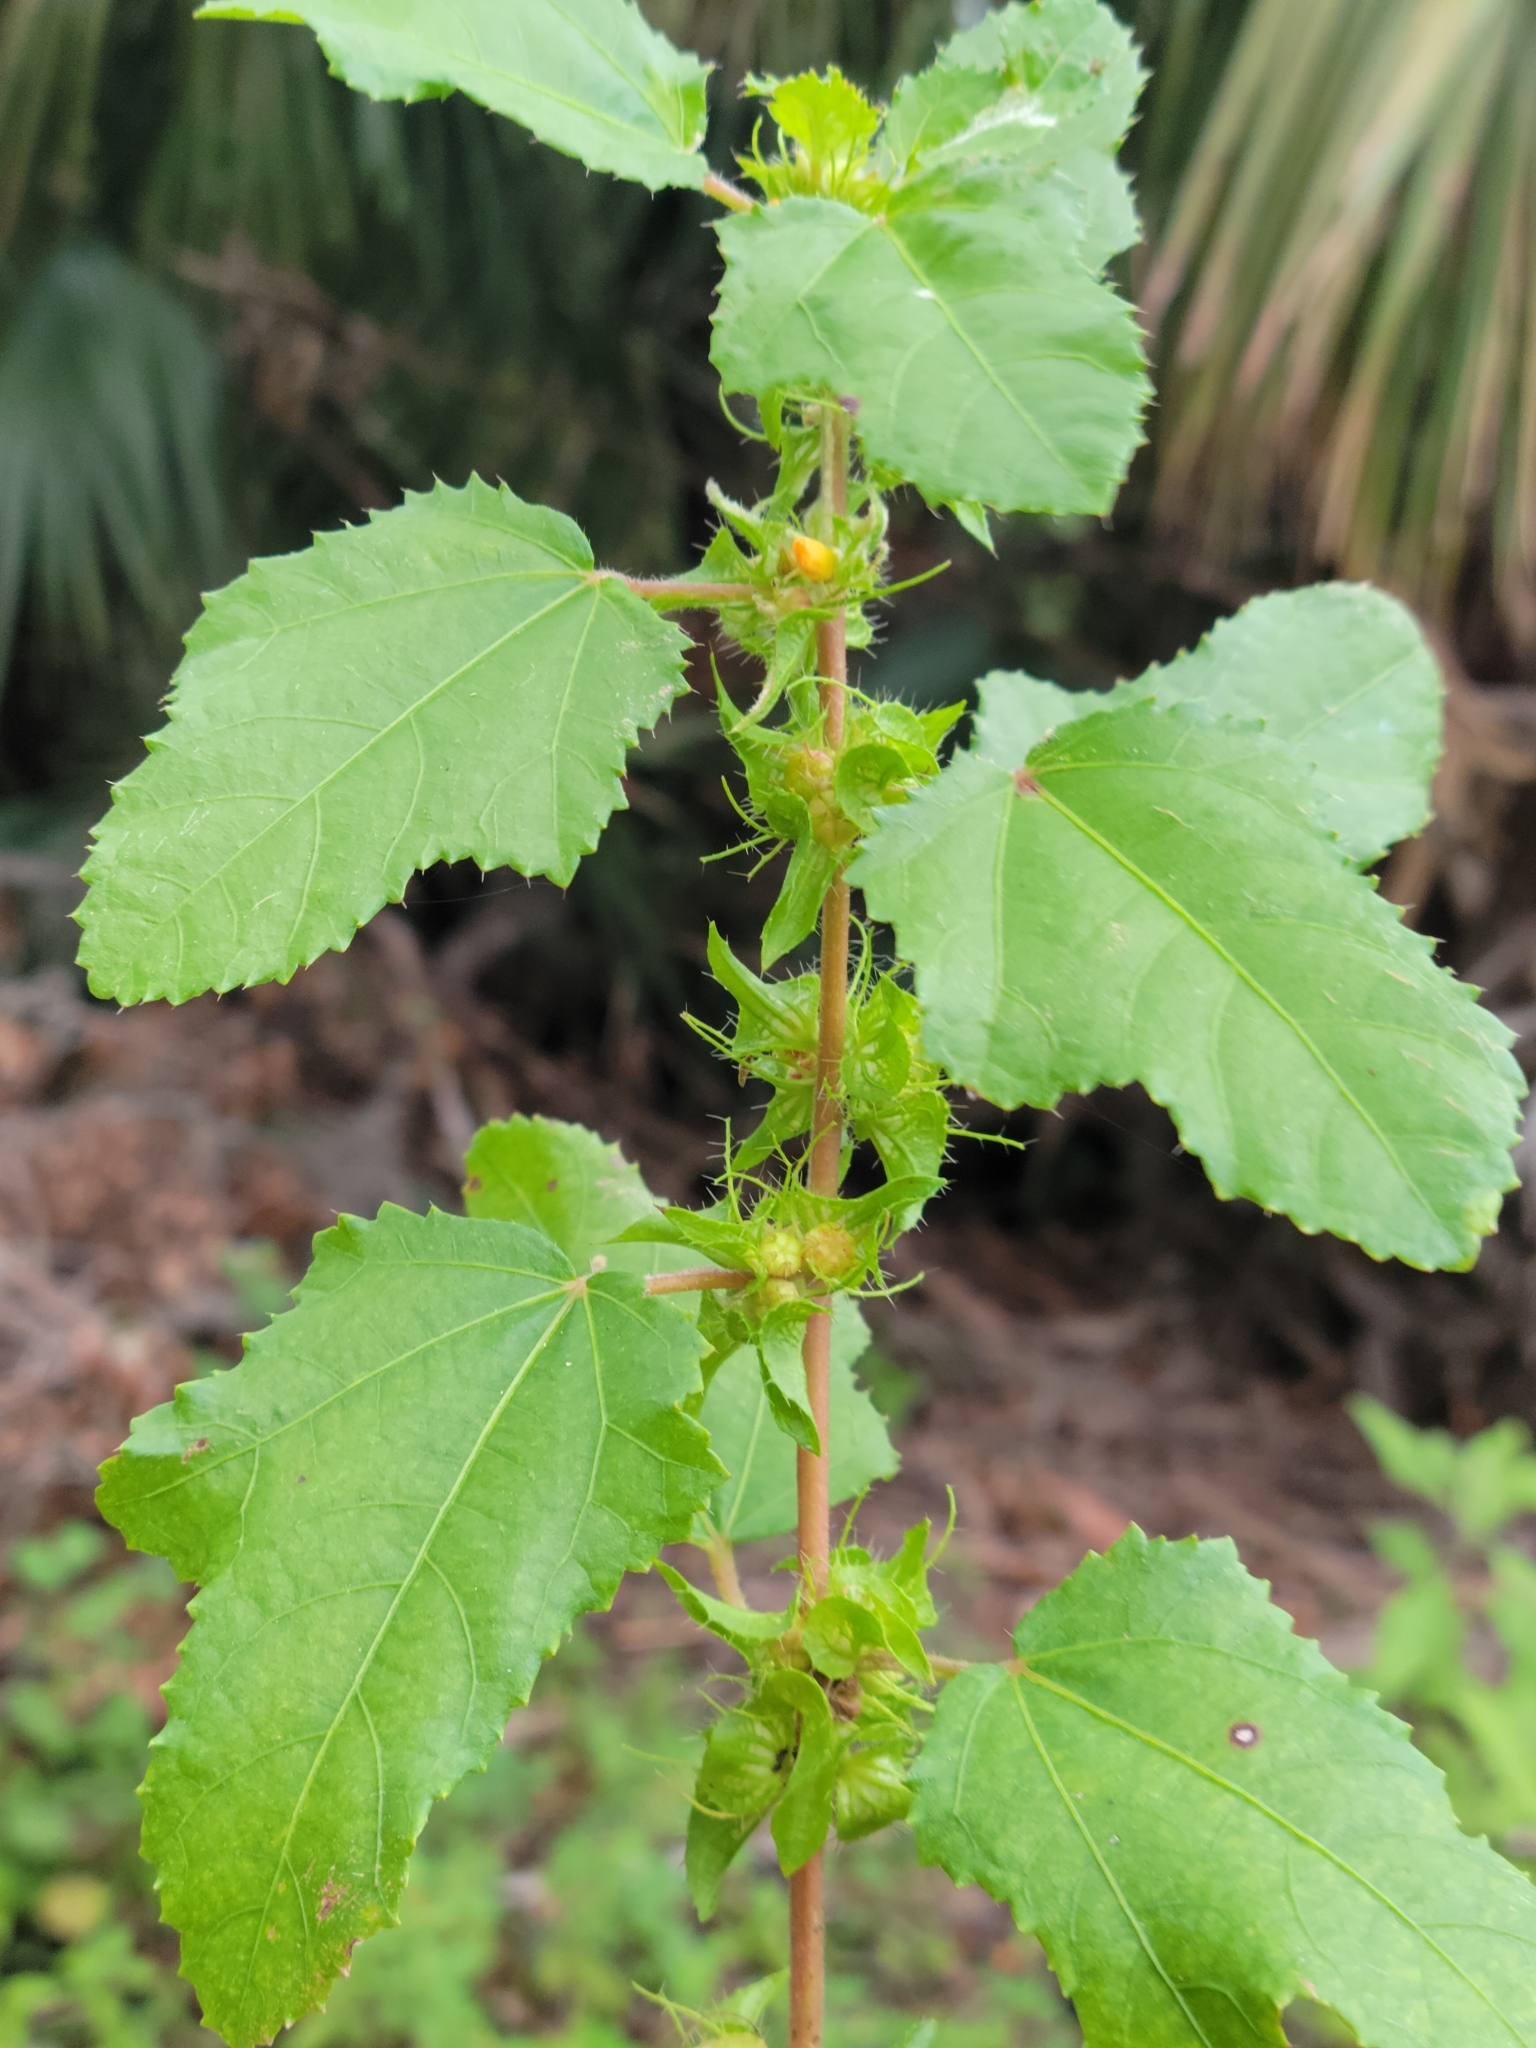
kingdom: Plantae
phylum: Tracheophyta
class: Magnoliopsida
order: Malvales
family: Malvaceae
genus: Malachra
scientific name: Malachra urens
